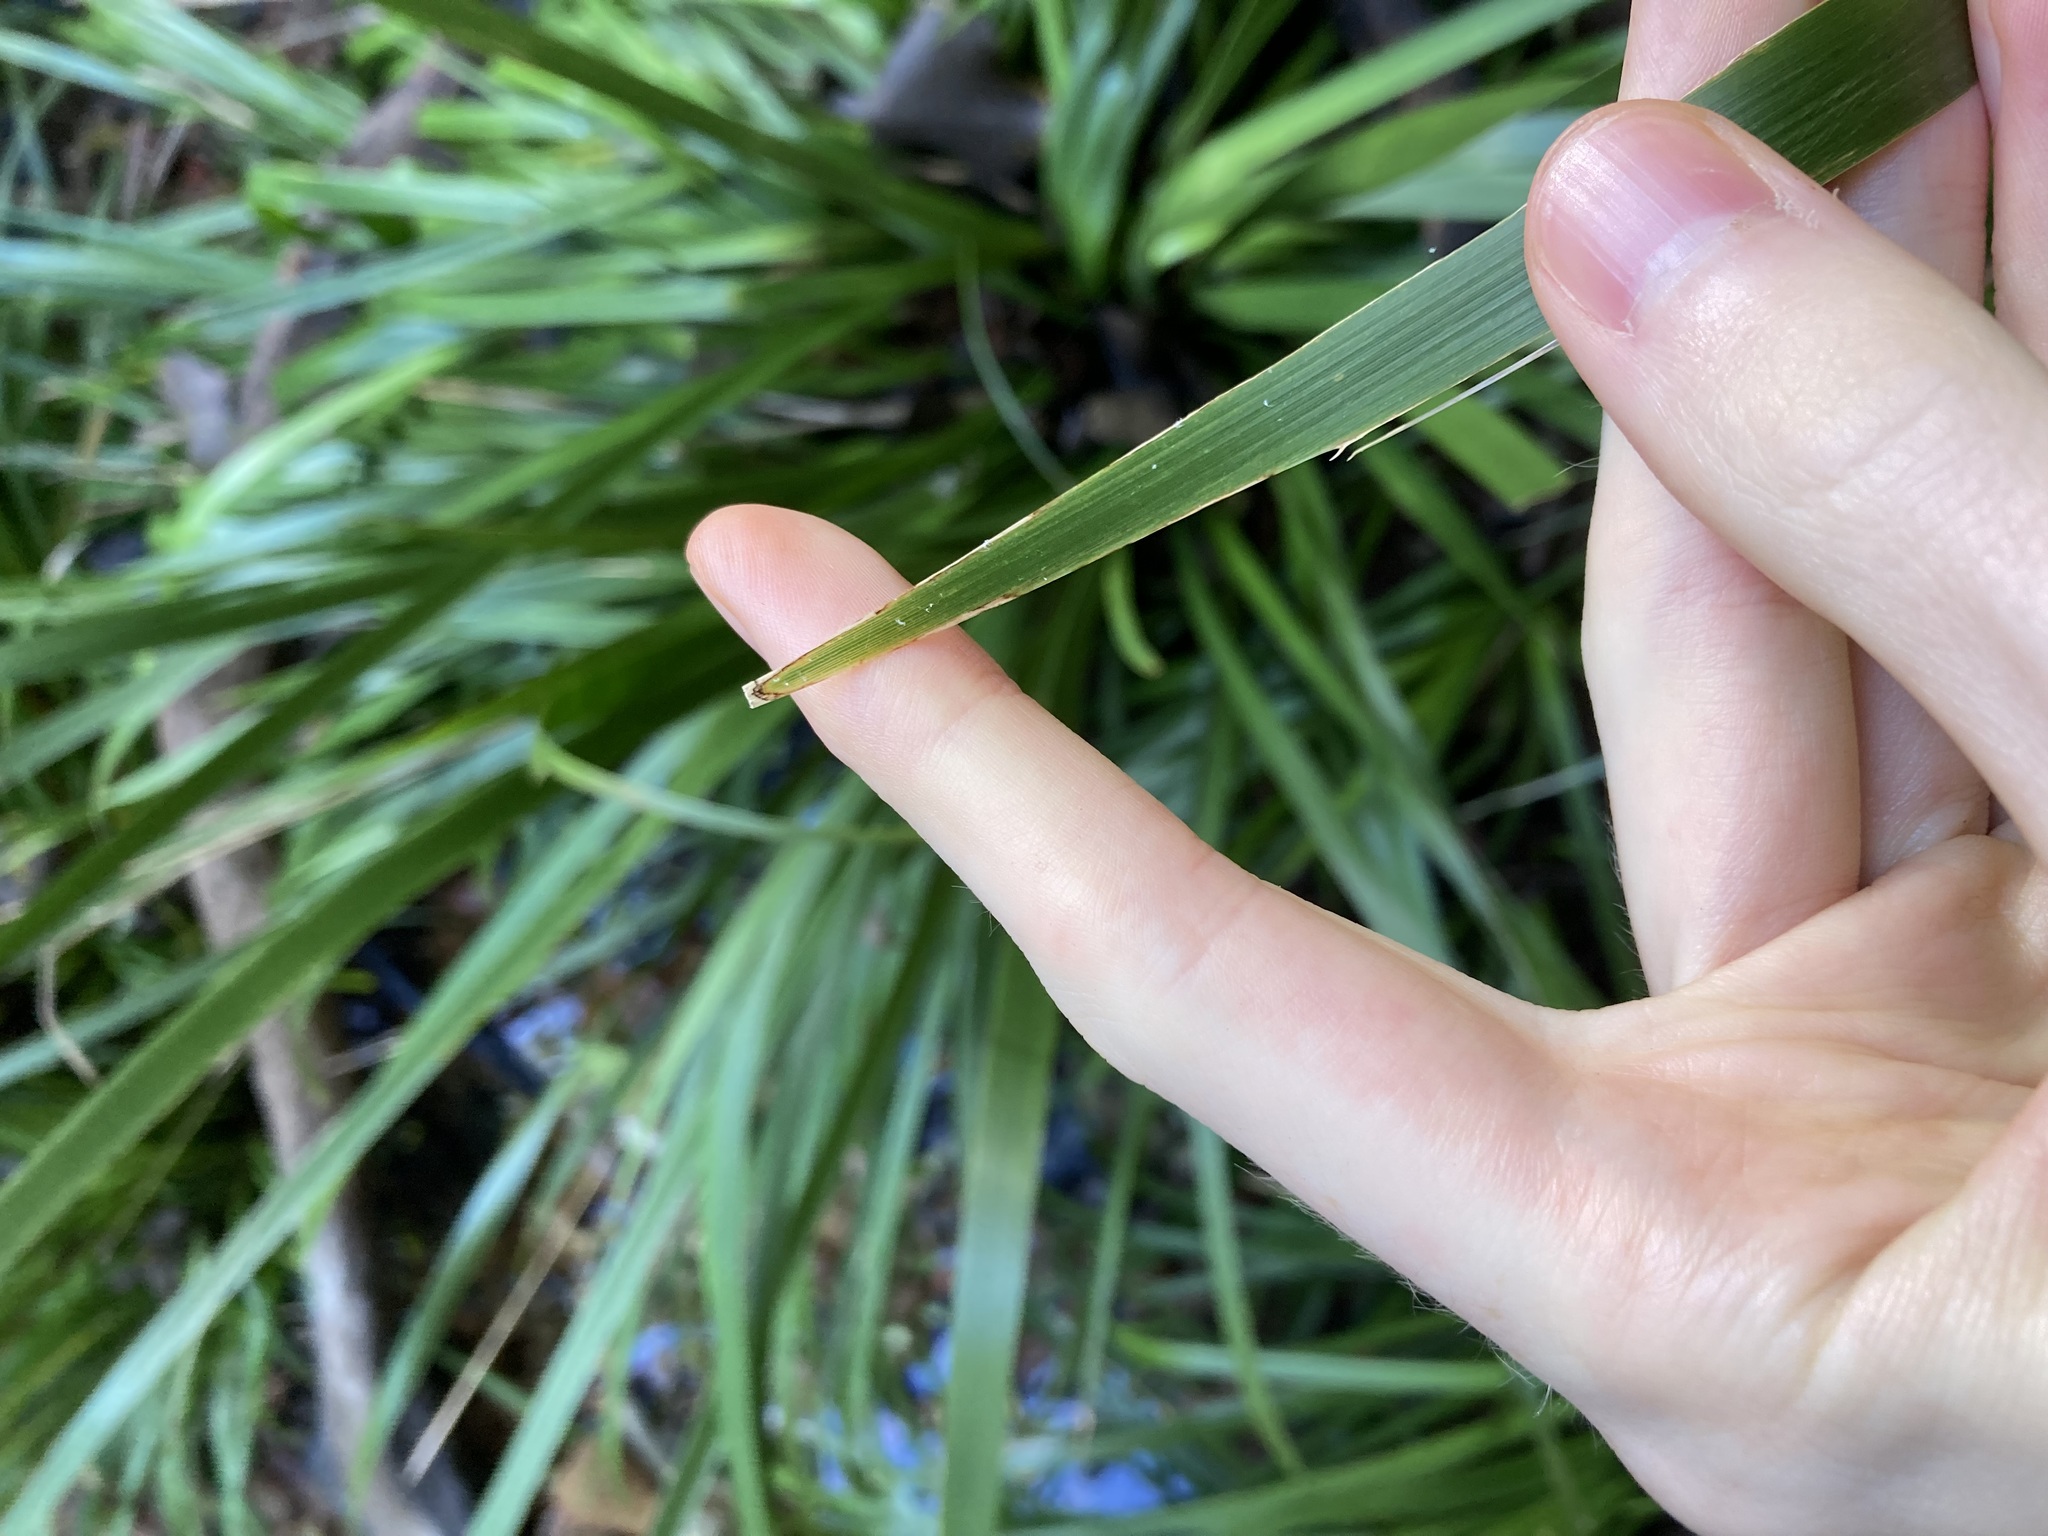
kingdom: Plantae
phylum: Tracheophyta
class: Liliopsida
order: Asparagales
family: Asparagaceae
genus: Lomandra
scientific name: Lomandra hystrix
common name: Creek mat-rush
